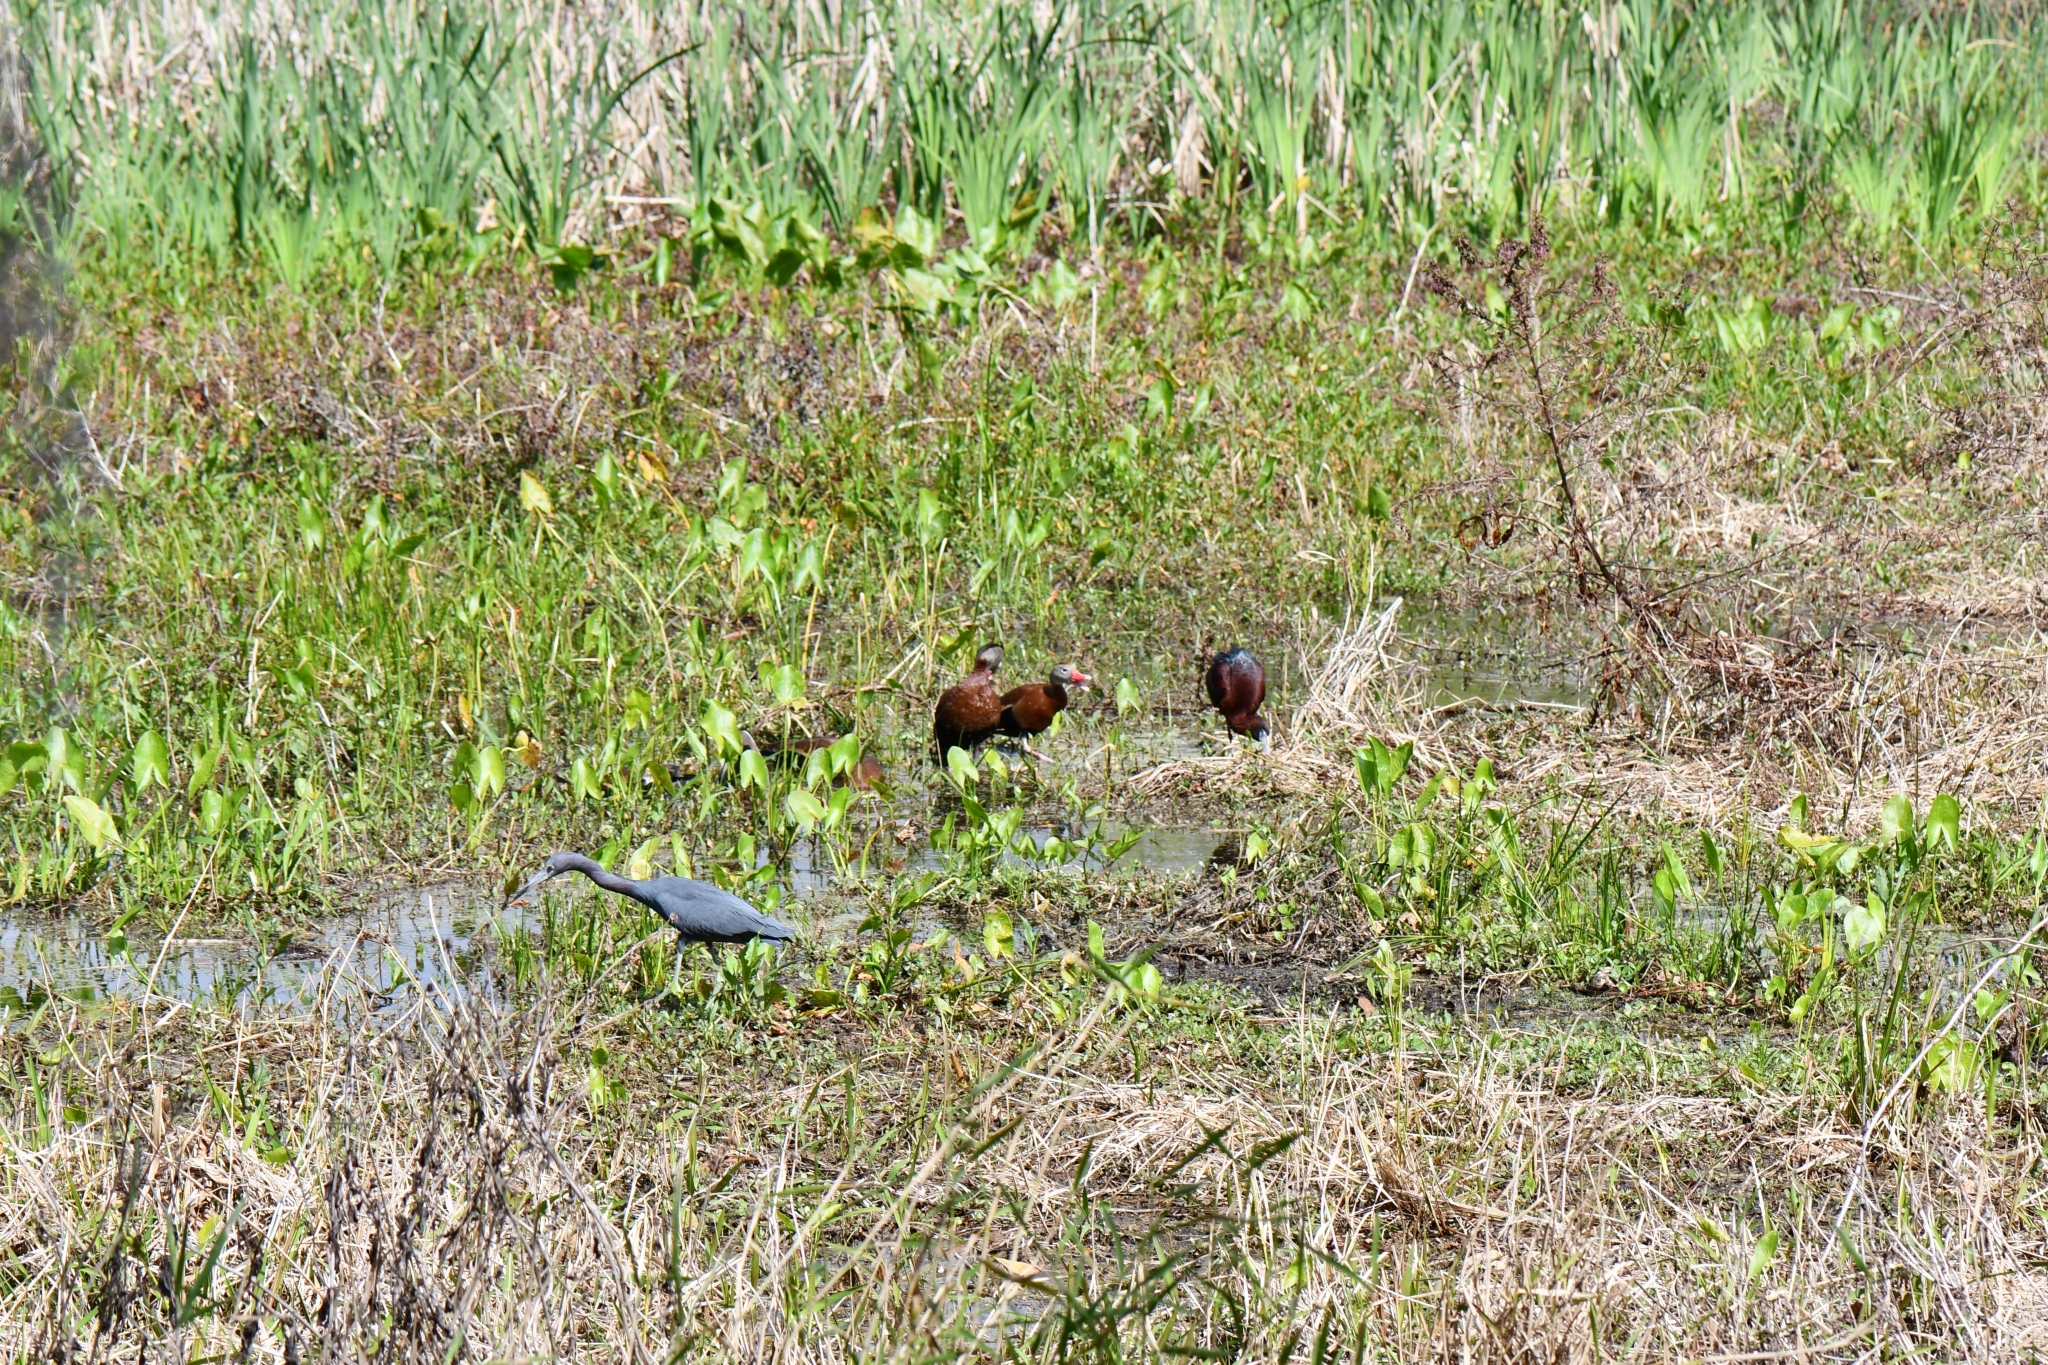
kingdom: Animalia
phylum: Chordata
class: Aves
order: Pelecaniformes
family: Ardeidae
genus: Egretta
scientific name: Egretta caerulea
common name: Little blue heron
